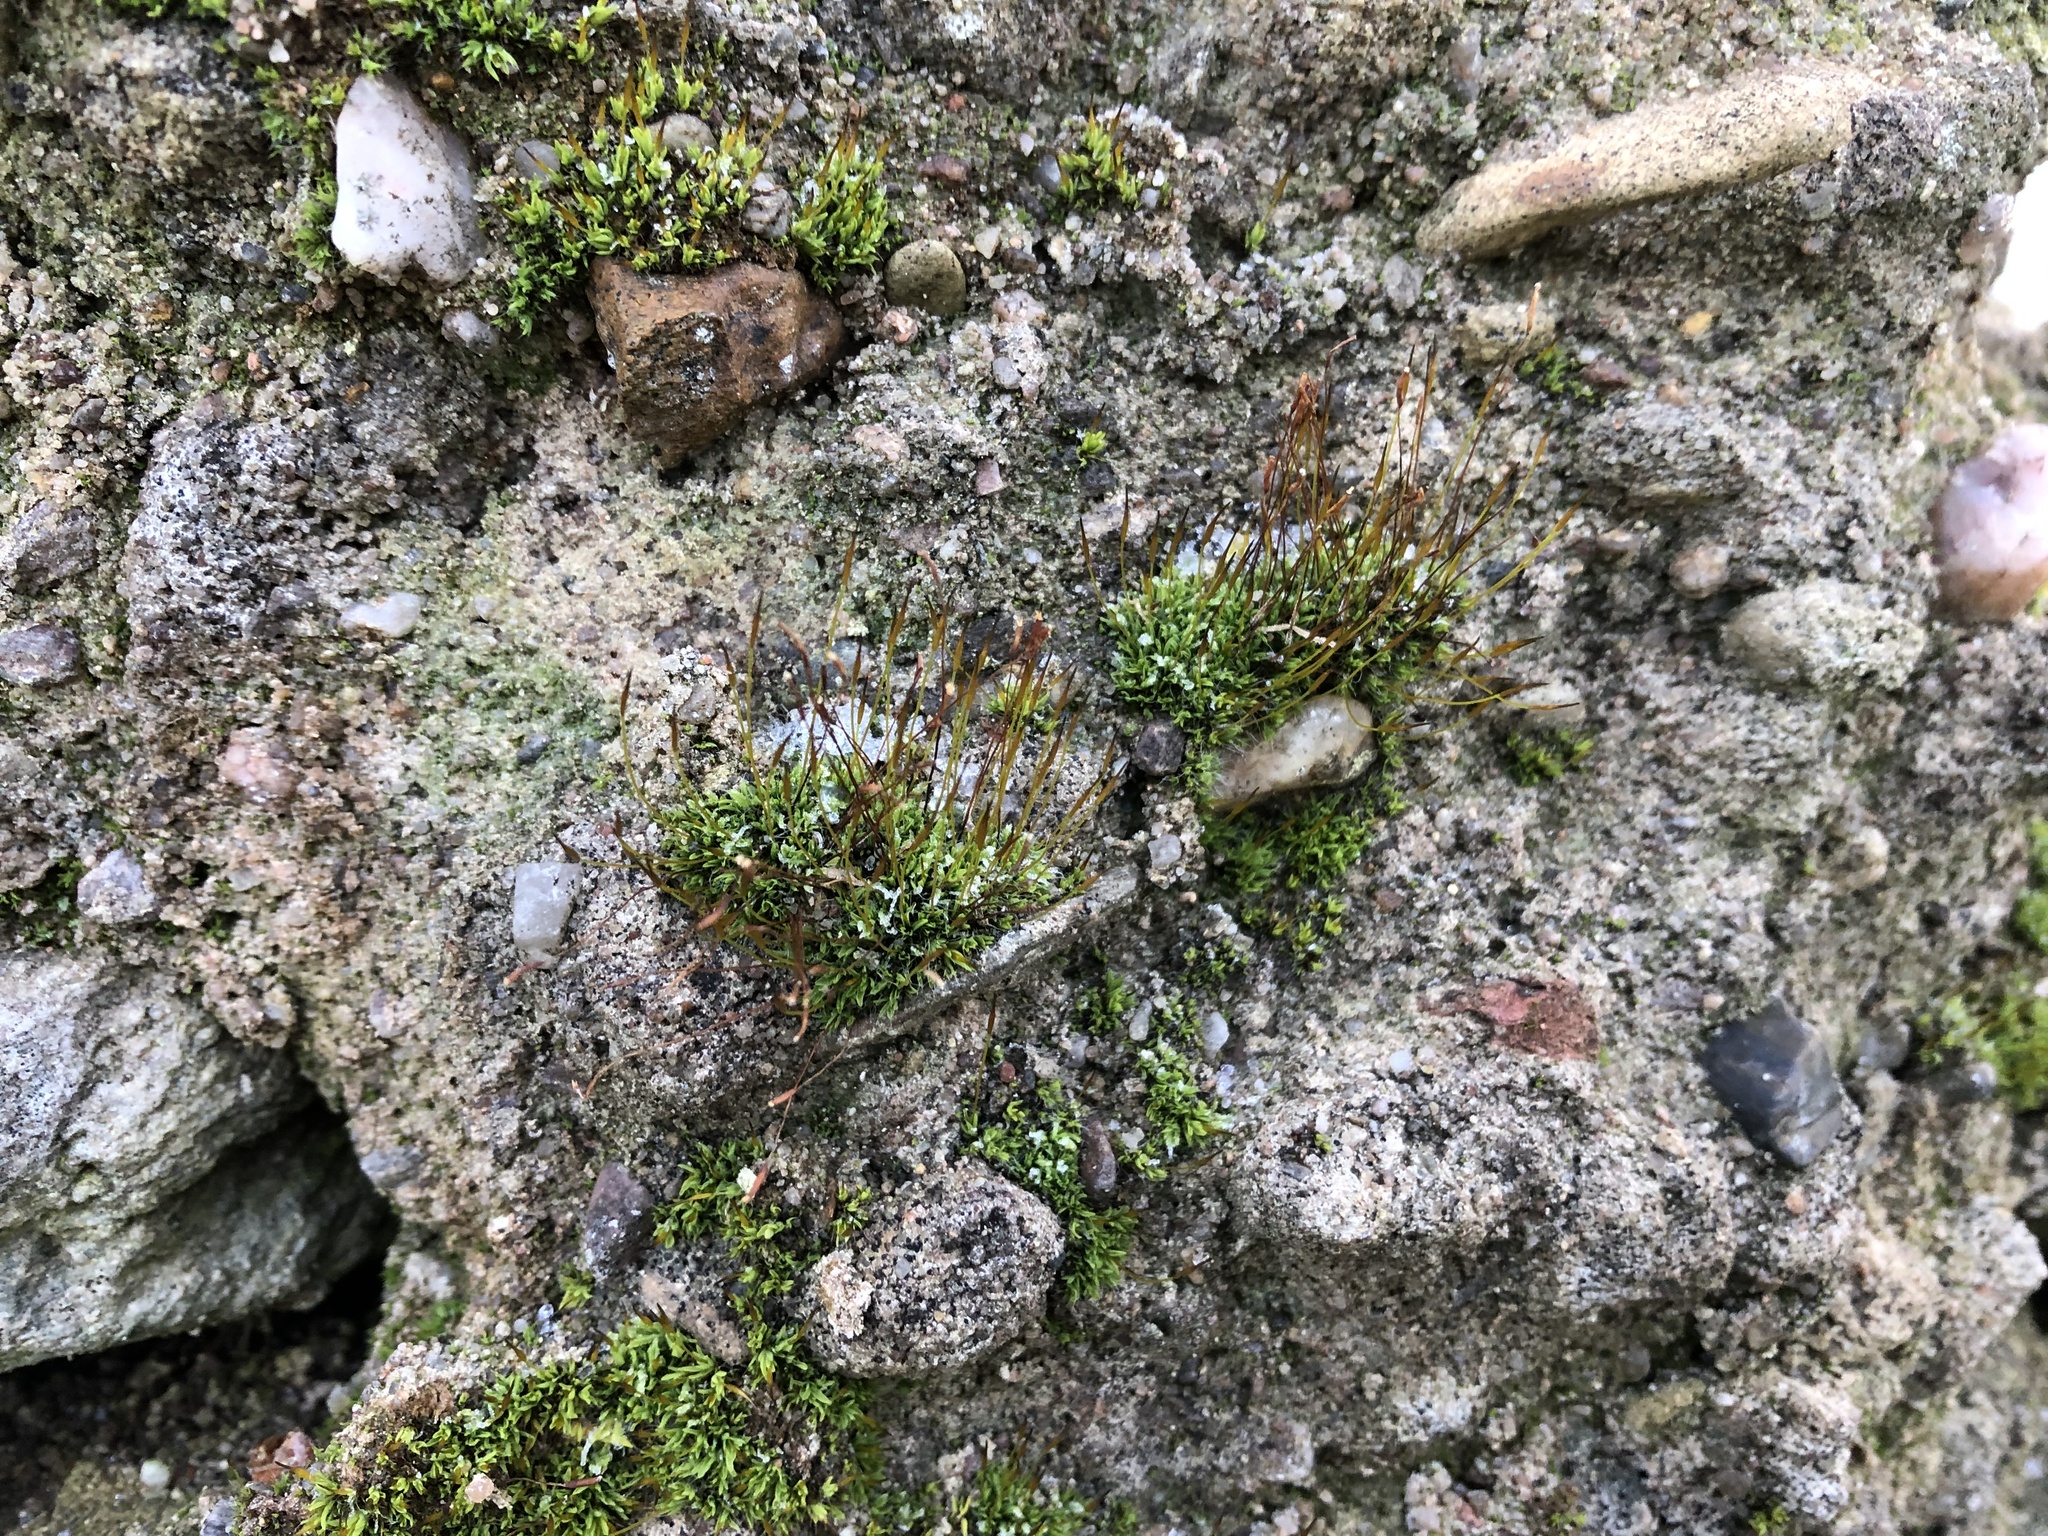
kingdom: Plantae
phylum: Bryophyta
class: Bryopsida
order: Pottiales
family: Pottiaceae
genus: Tortula
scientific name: Tortula muralis
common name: Wall screw-moss
